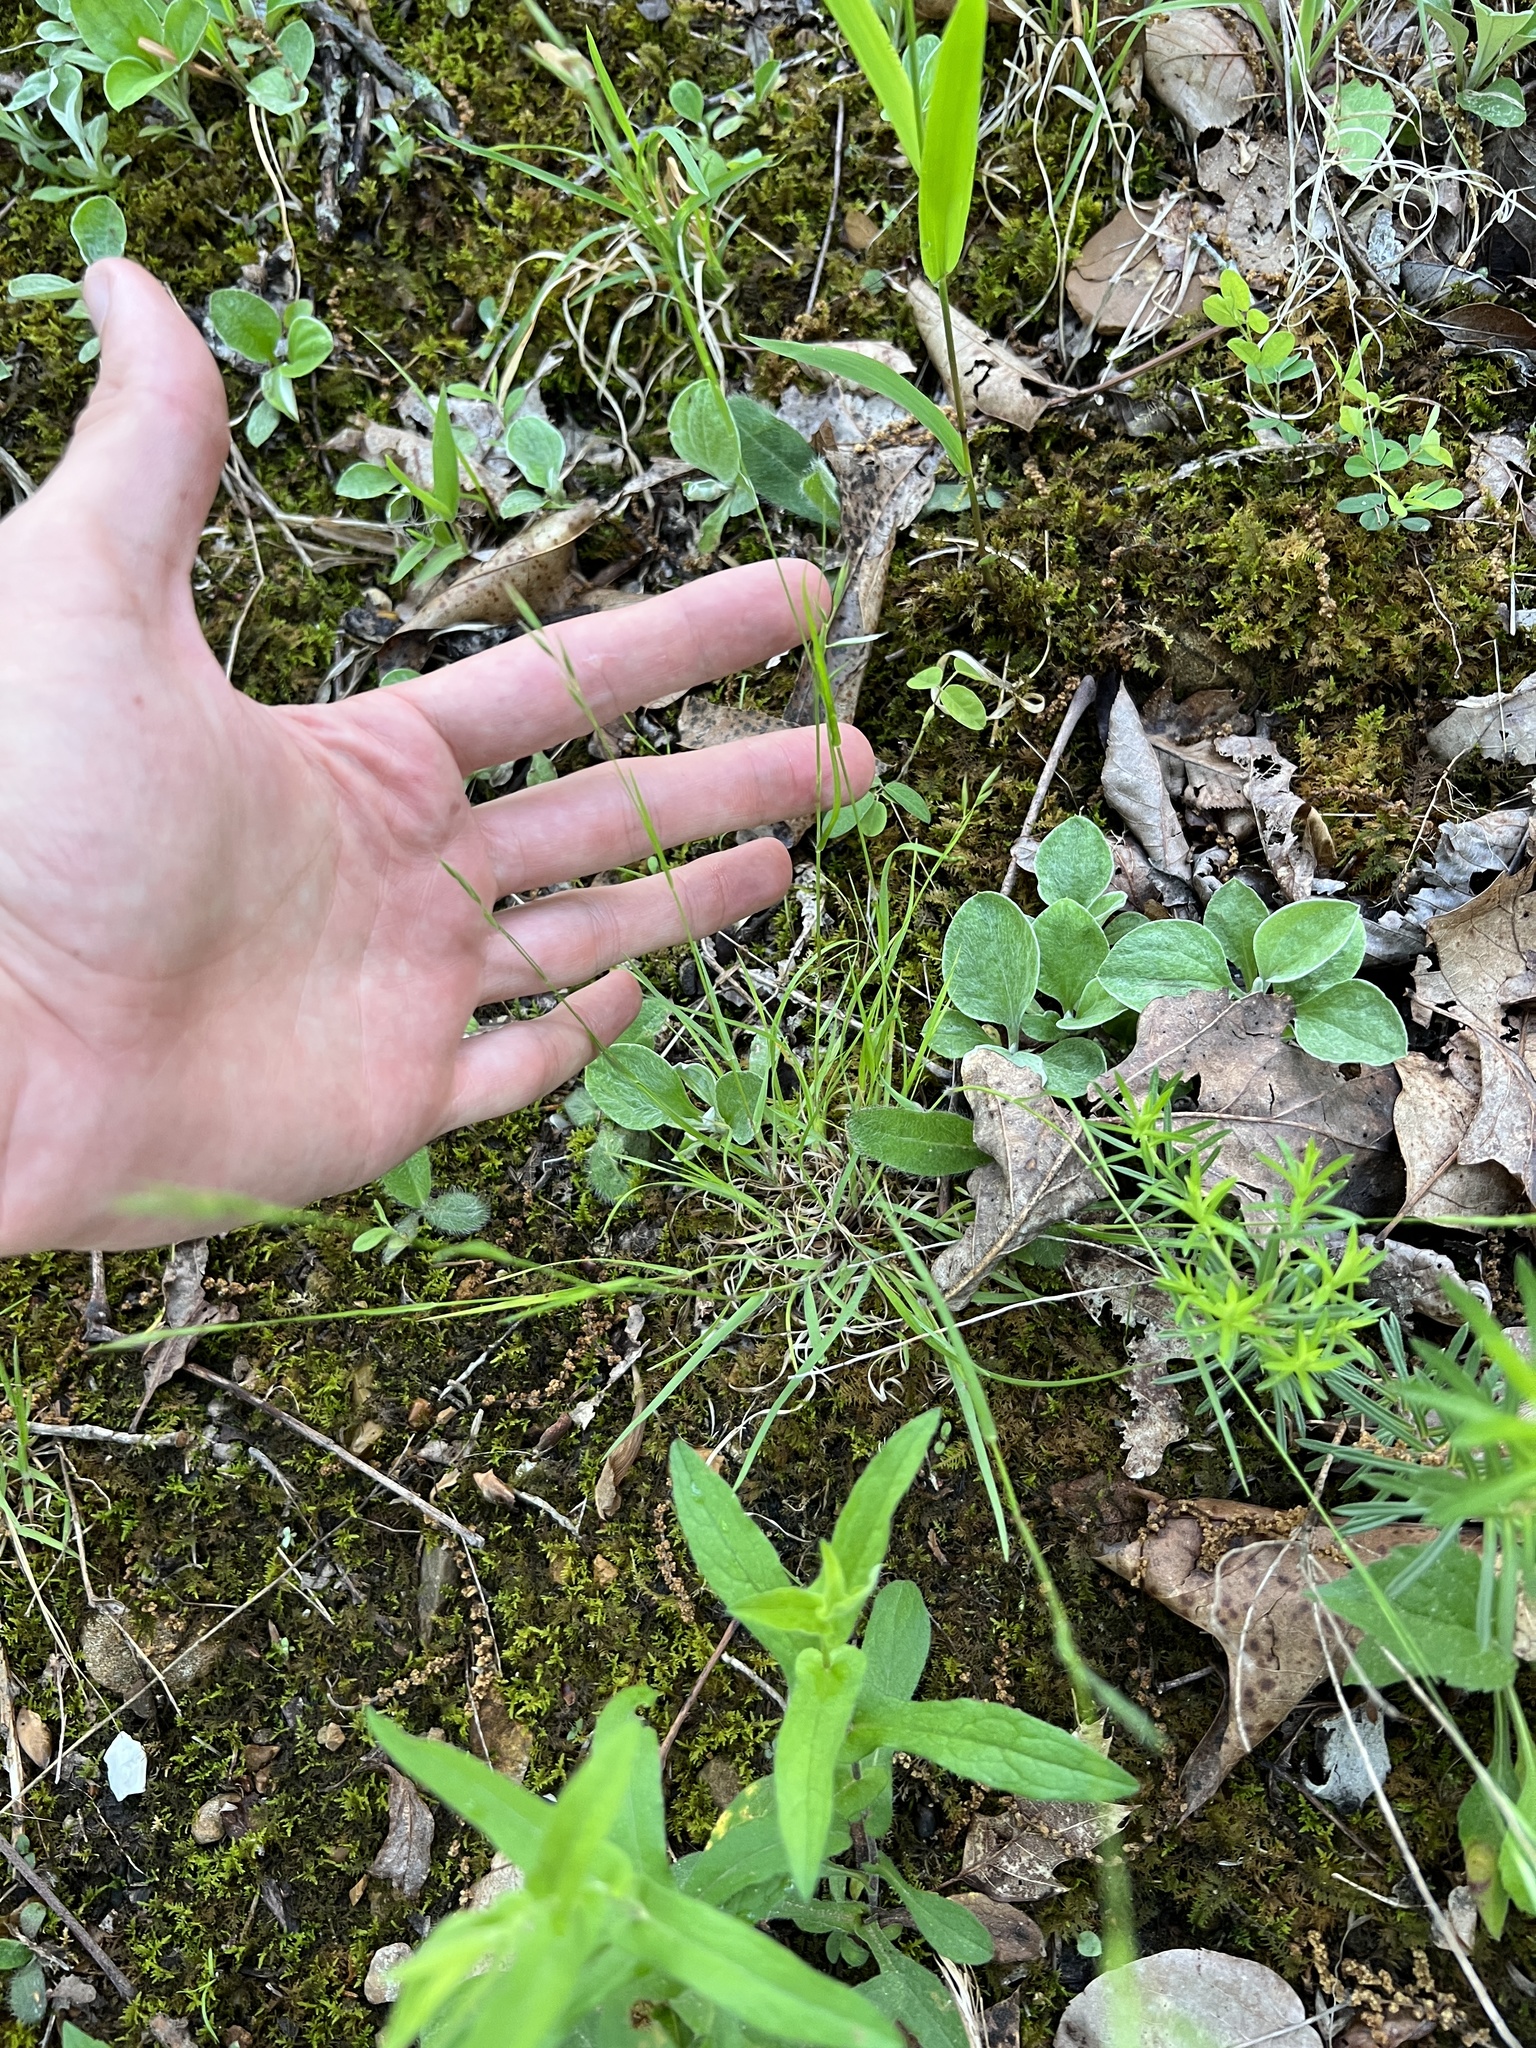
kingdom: Plantae
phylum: Tracheophyta
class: Liliopsida
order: Poales
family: Poaceae
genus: Danthonia
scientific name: Danthonia spicata
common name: Common wild oatgrass
